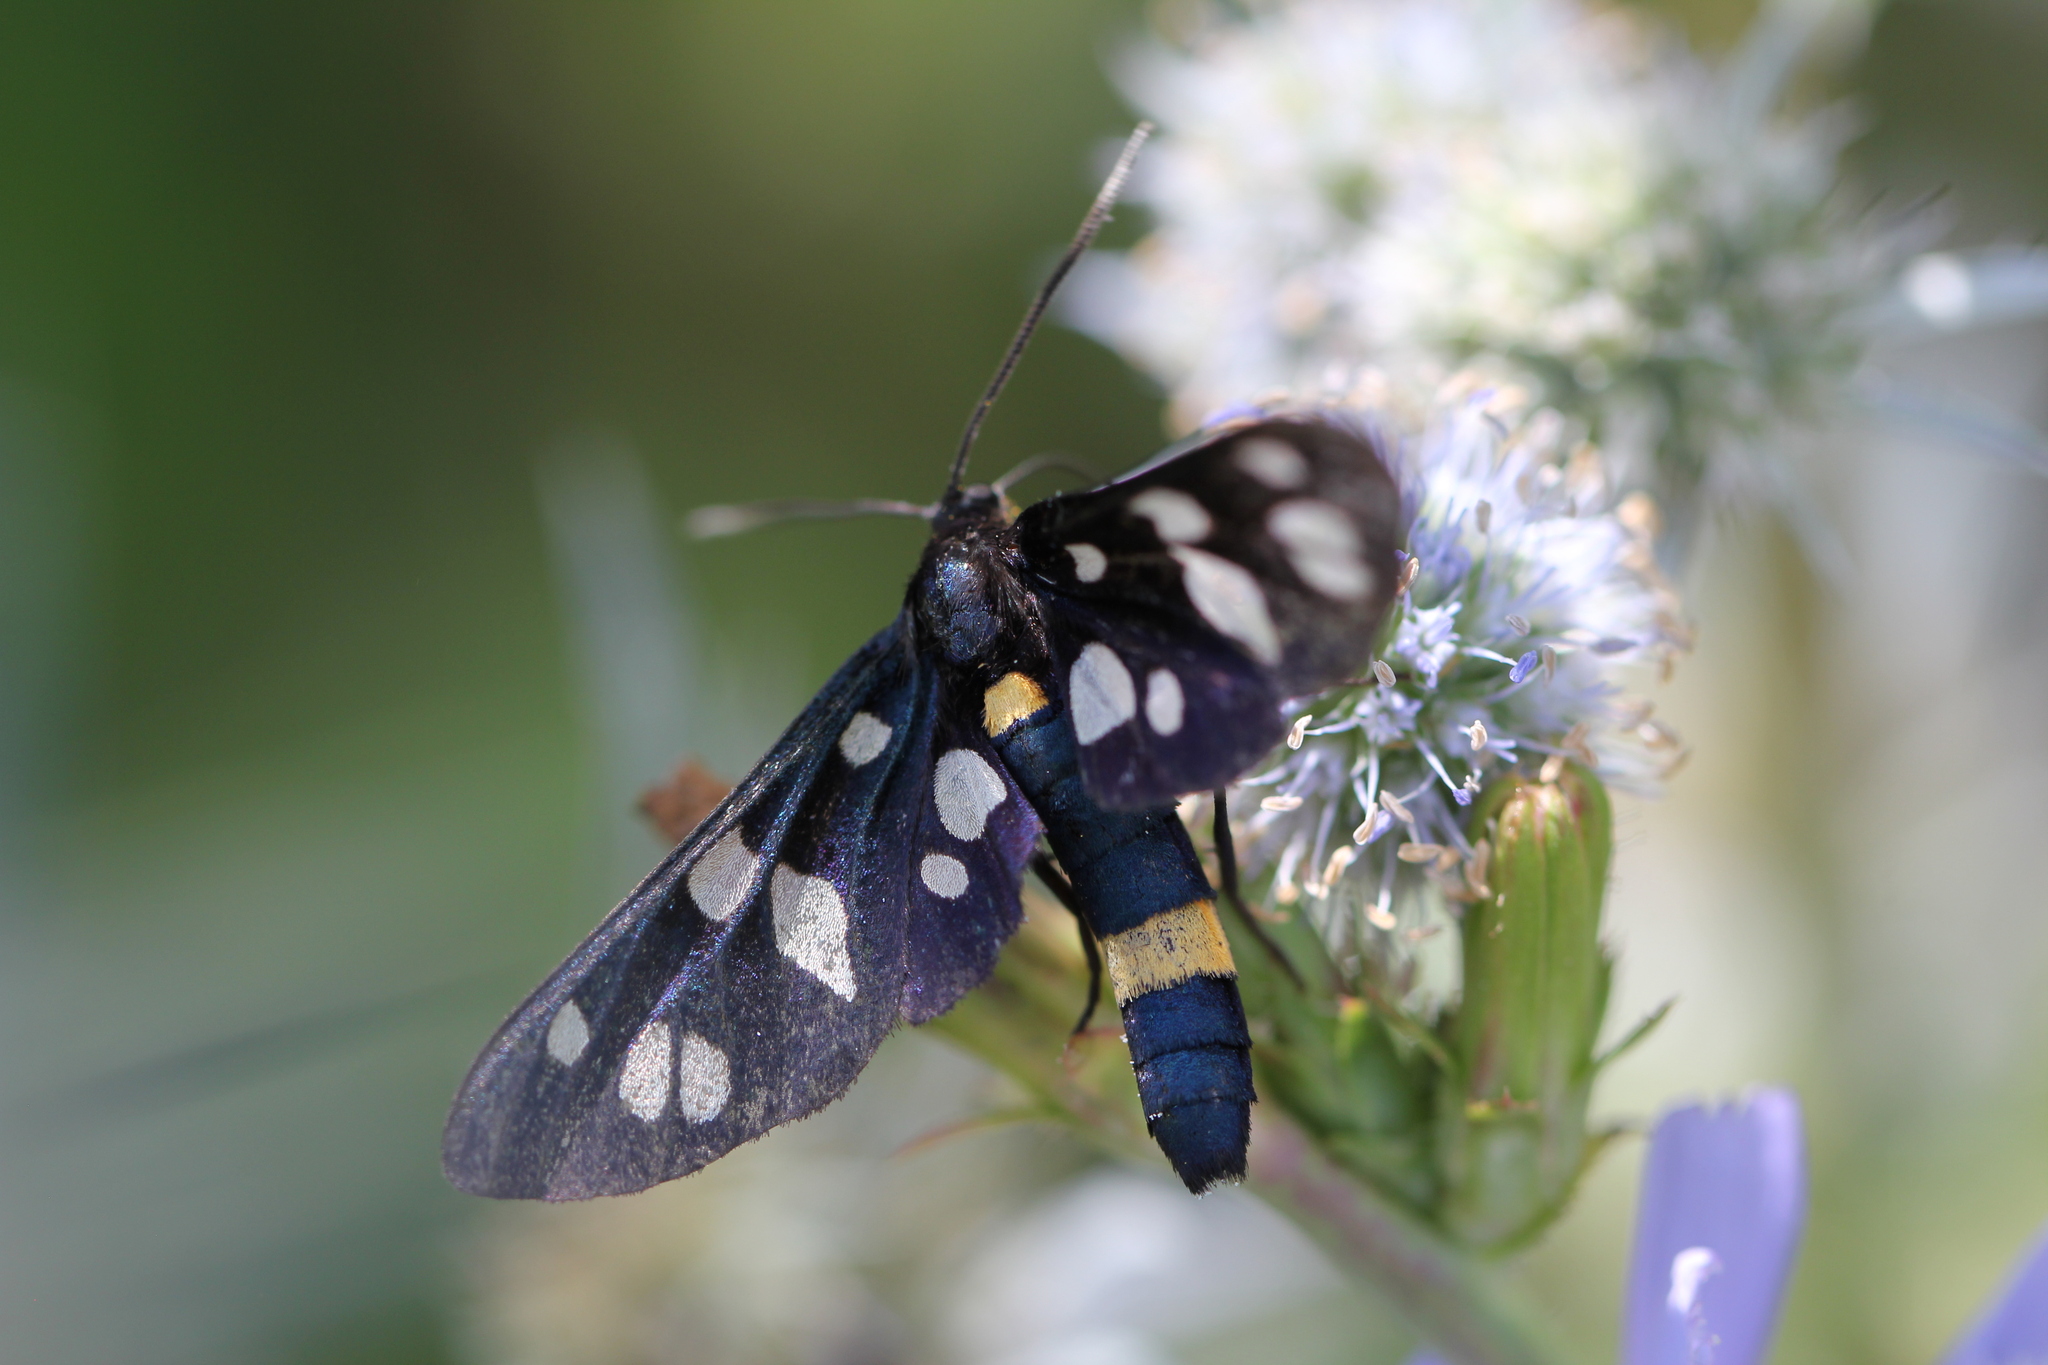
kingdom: Animalia
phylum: Arthropoda
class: Insecta
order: Lepidoptera
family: Erebidae
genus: Amata
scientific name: Amata nigricornis
